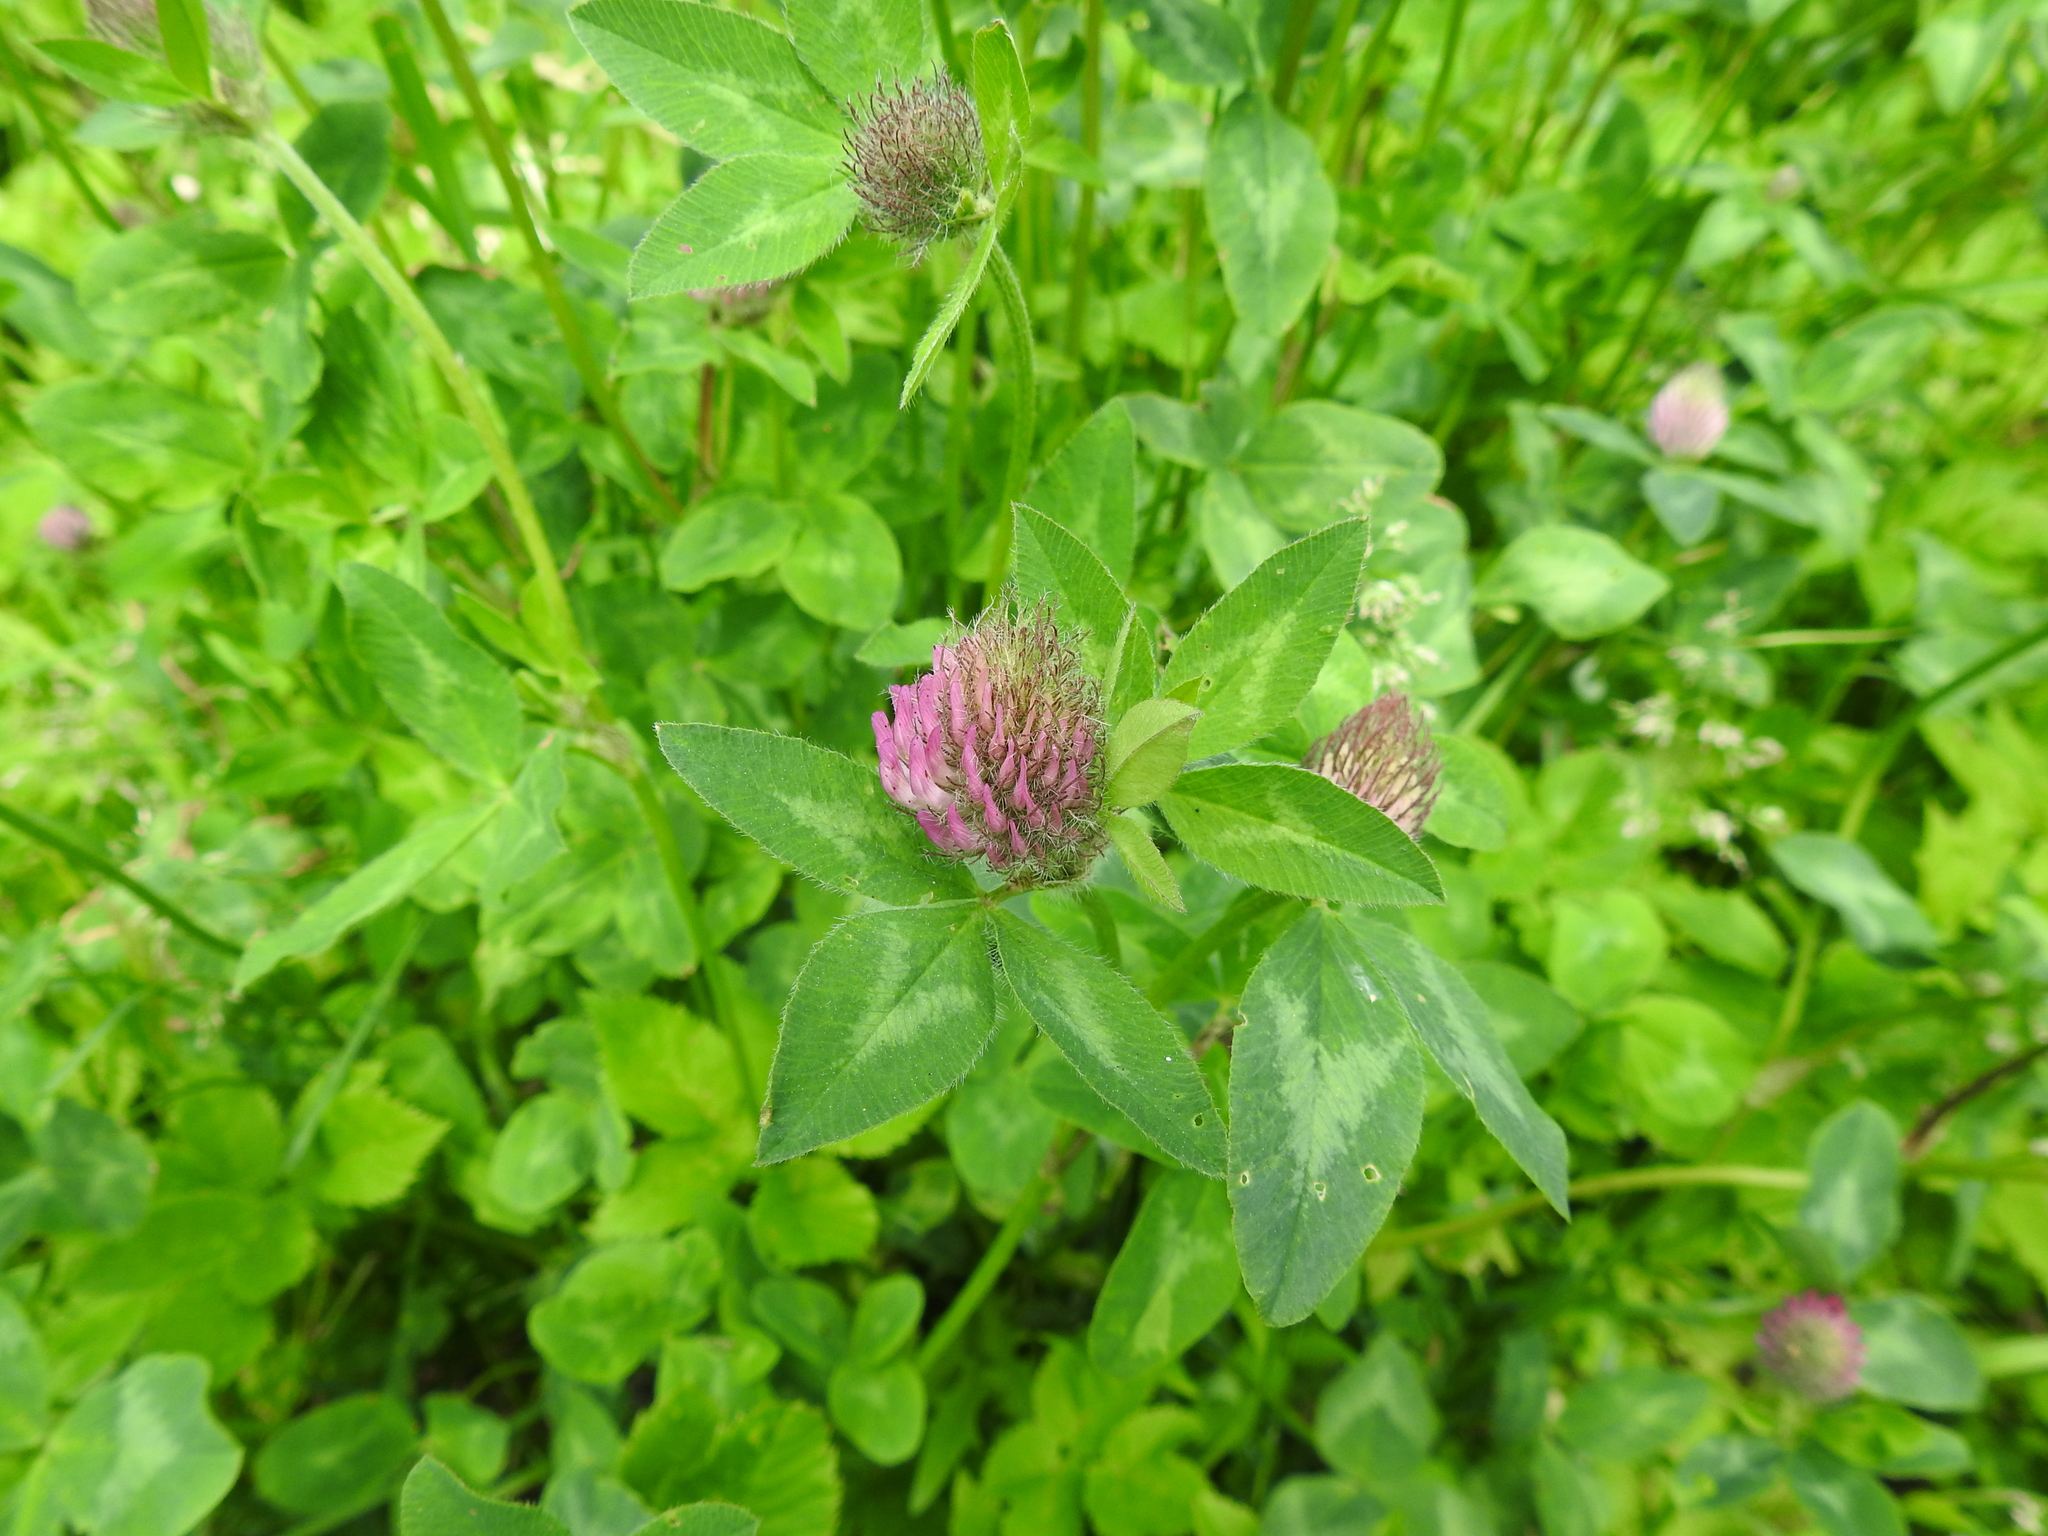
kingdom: Plantae
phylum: Tracheophyta
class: Magnoliopsida
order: Fabales
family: Fabaceae
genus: Trifolium
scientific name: Trifolium pratense
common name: Red clover
